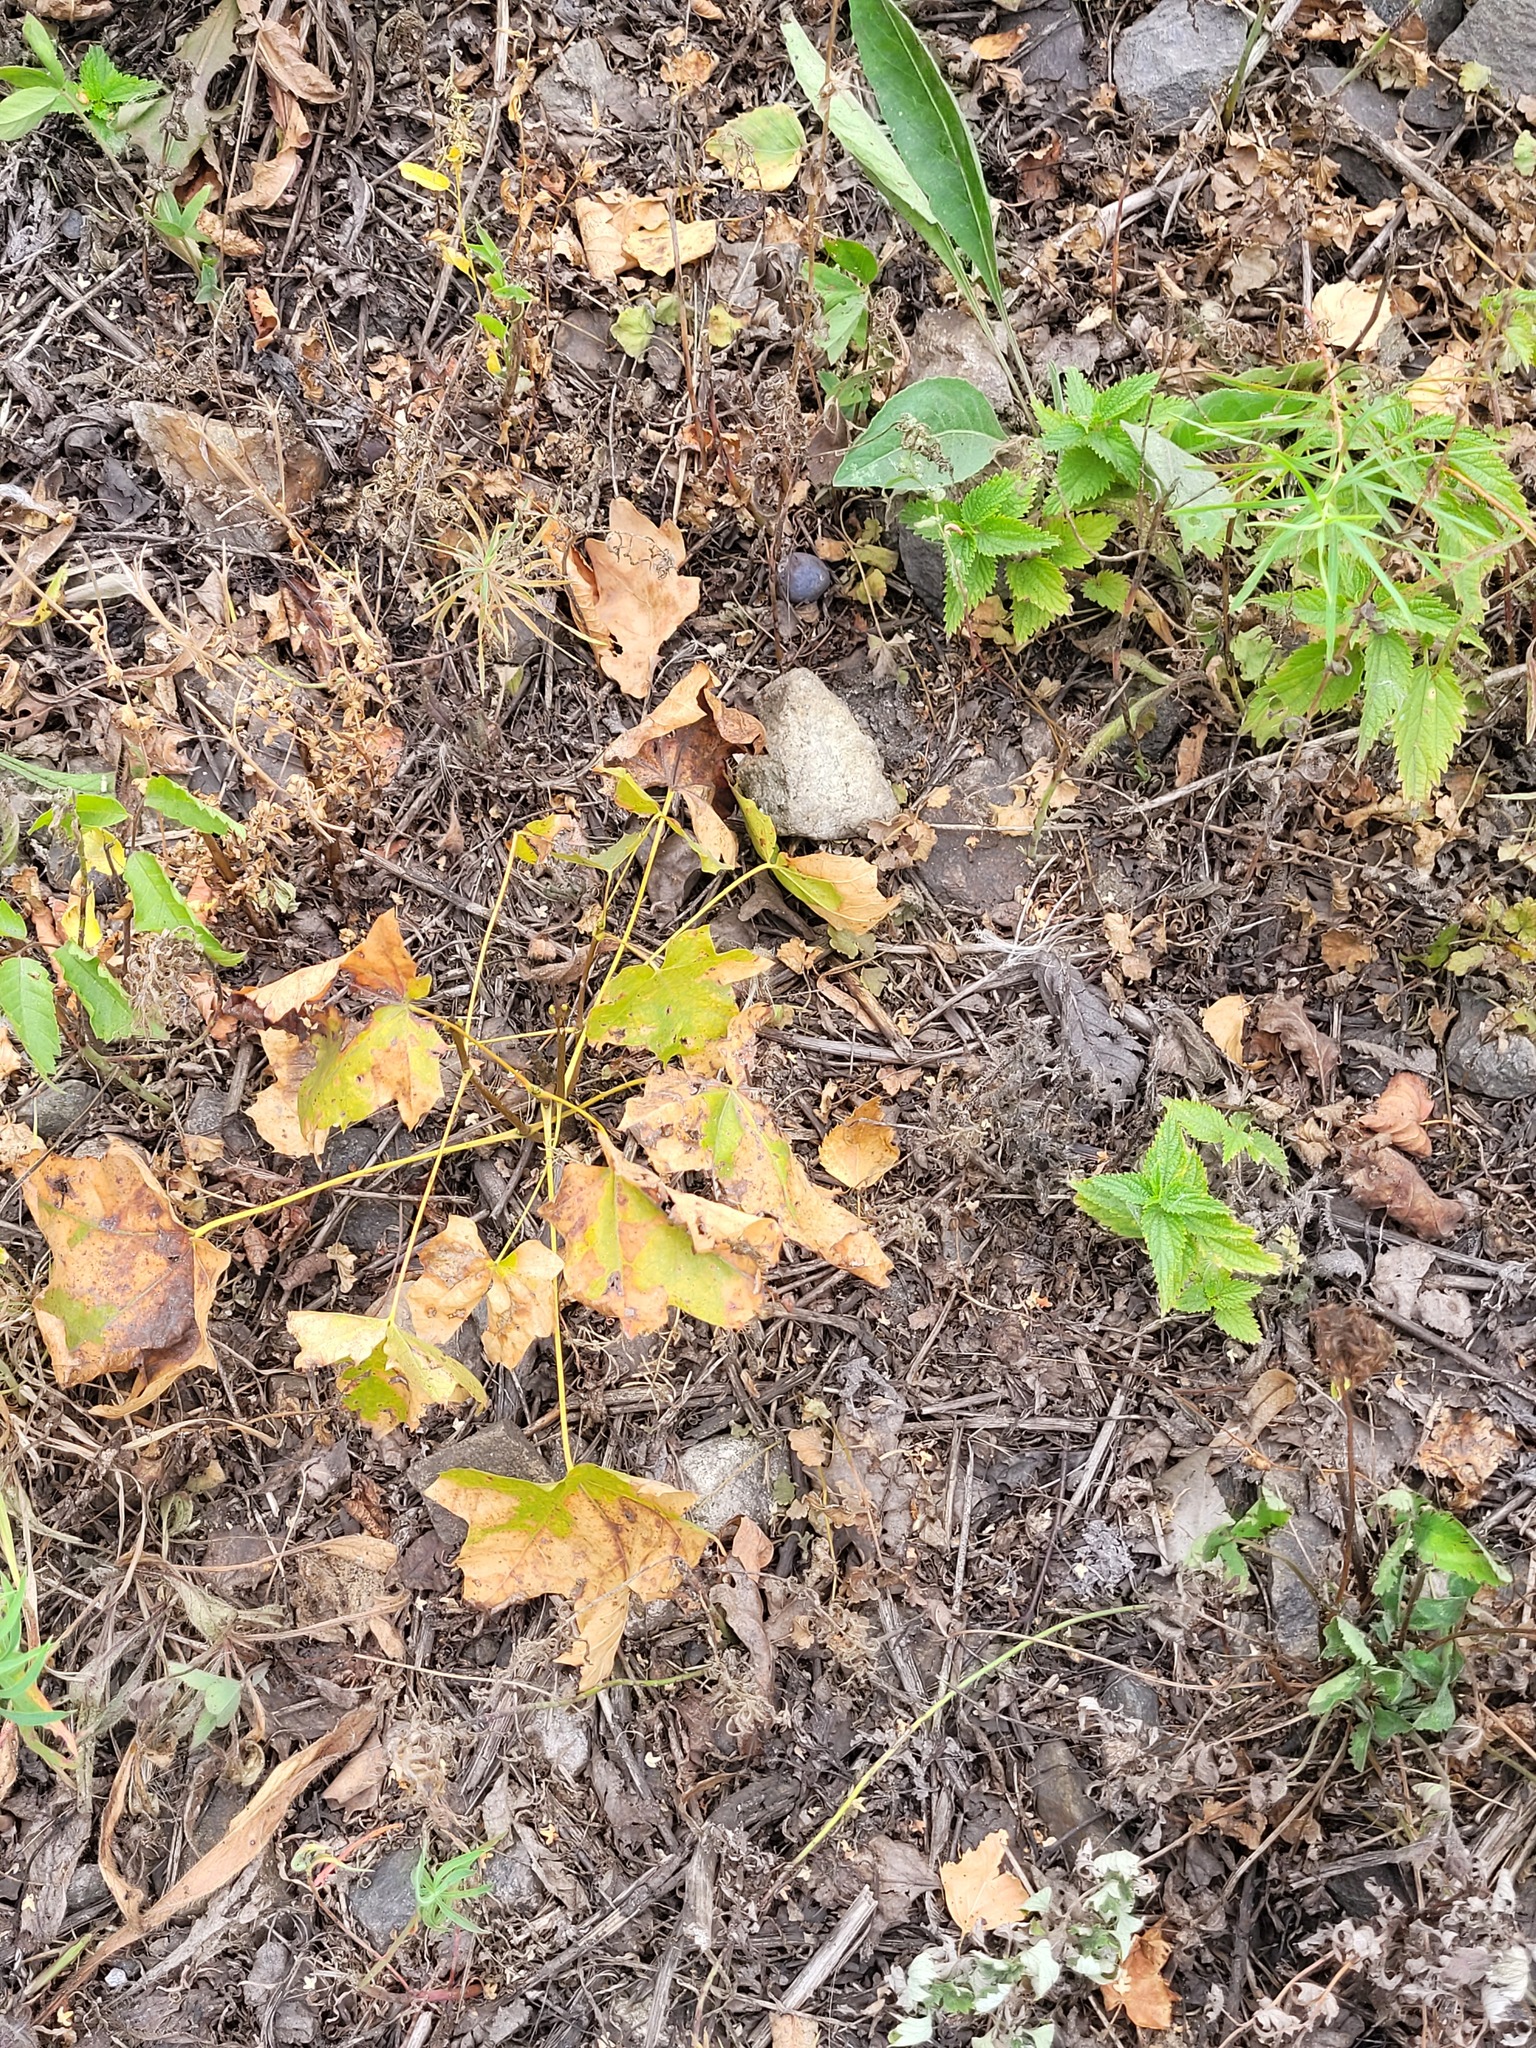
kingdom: Plantae
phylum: Tracheophyta
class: Magnoliopsida
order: Sapindales
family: Sapindaceae
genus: Acer
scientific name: Acer platanoides
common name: Norway maple
